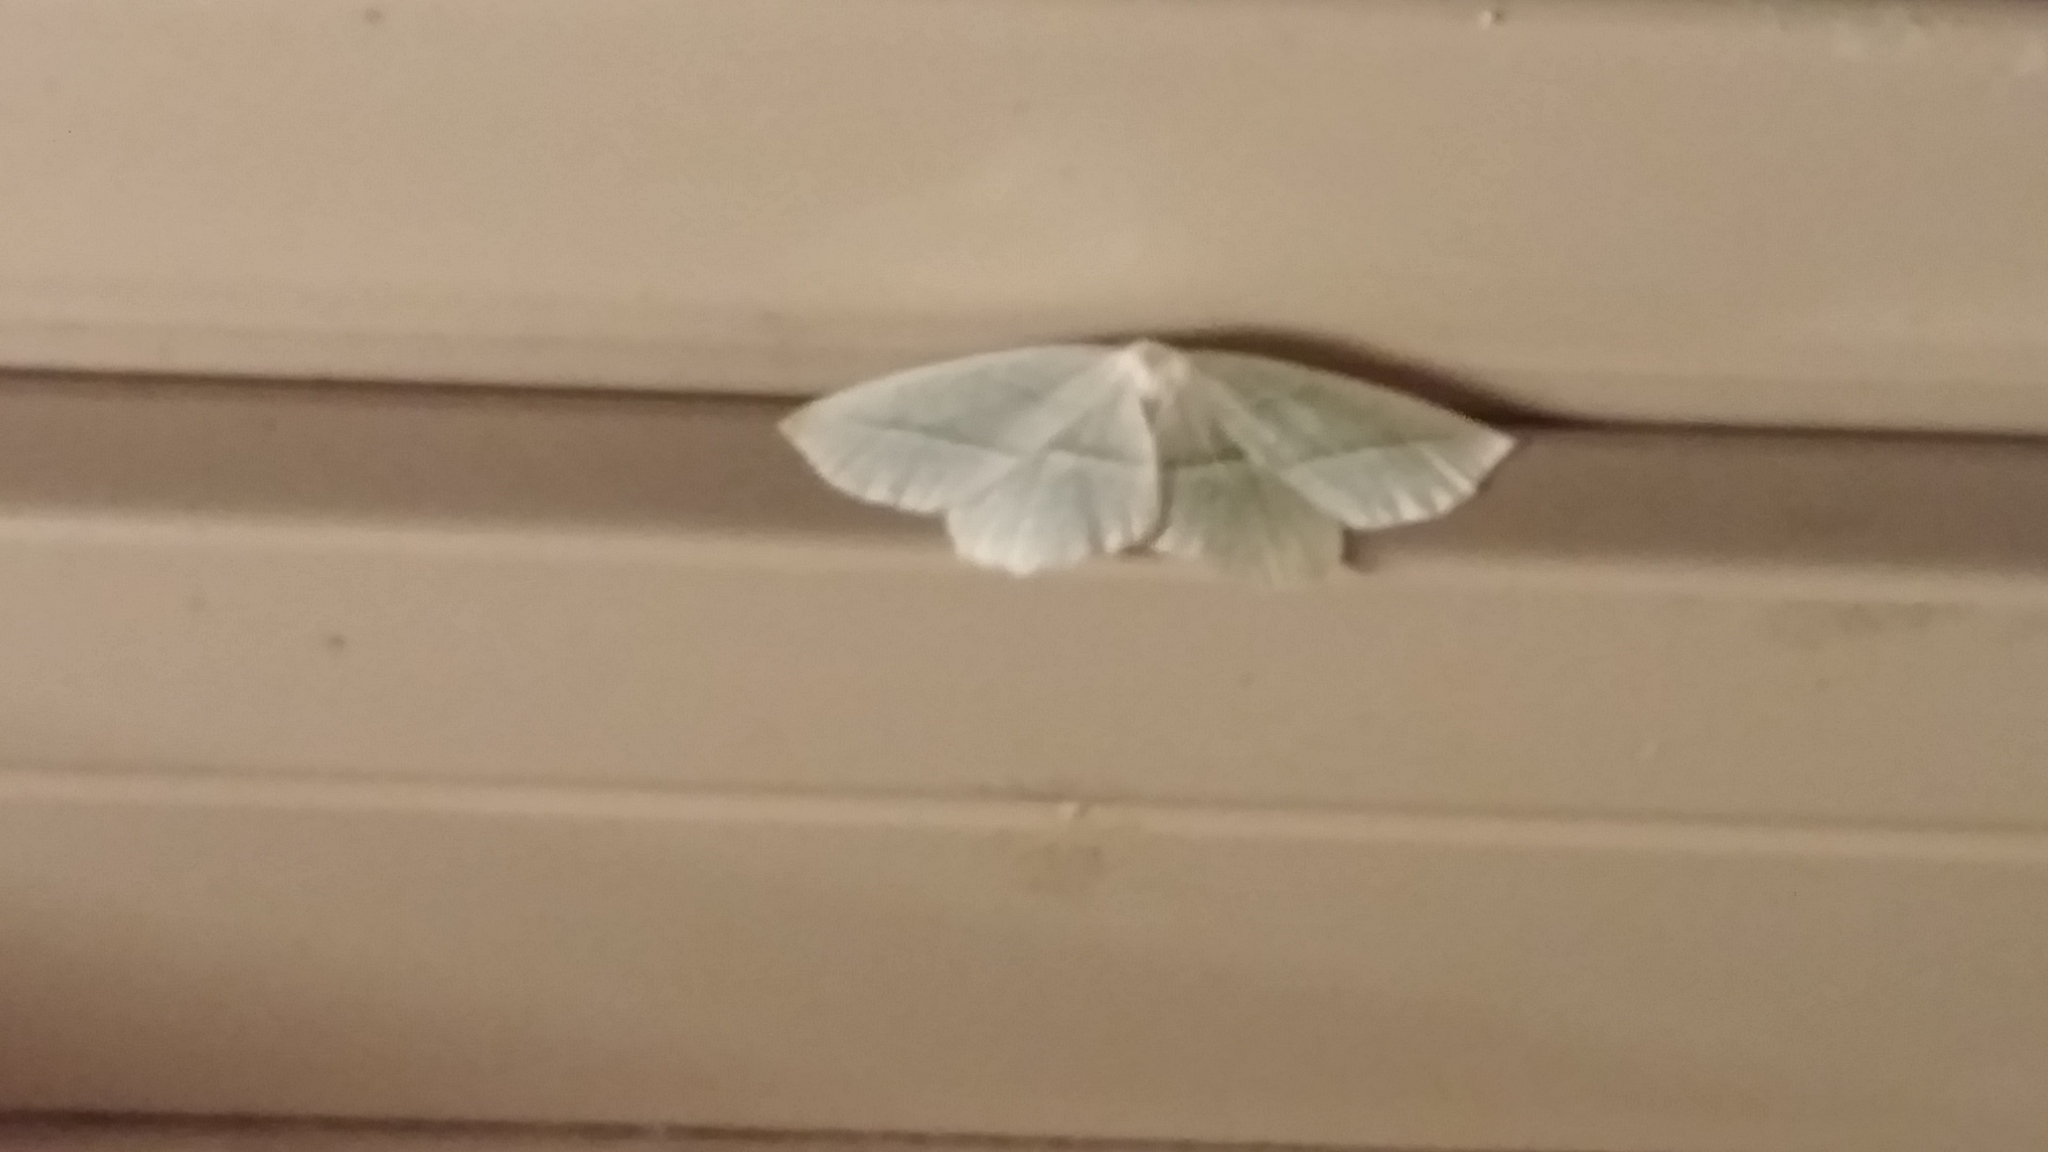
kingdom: Animalia
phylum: Arthropoda
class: Insecta
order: Lepidoptera
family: Geometridae
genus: Campaea
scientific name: Campaea perlata
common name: Fringed looper
